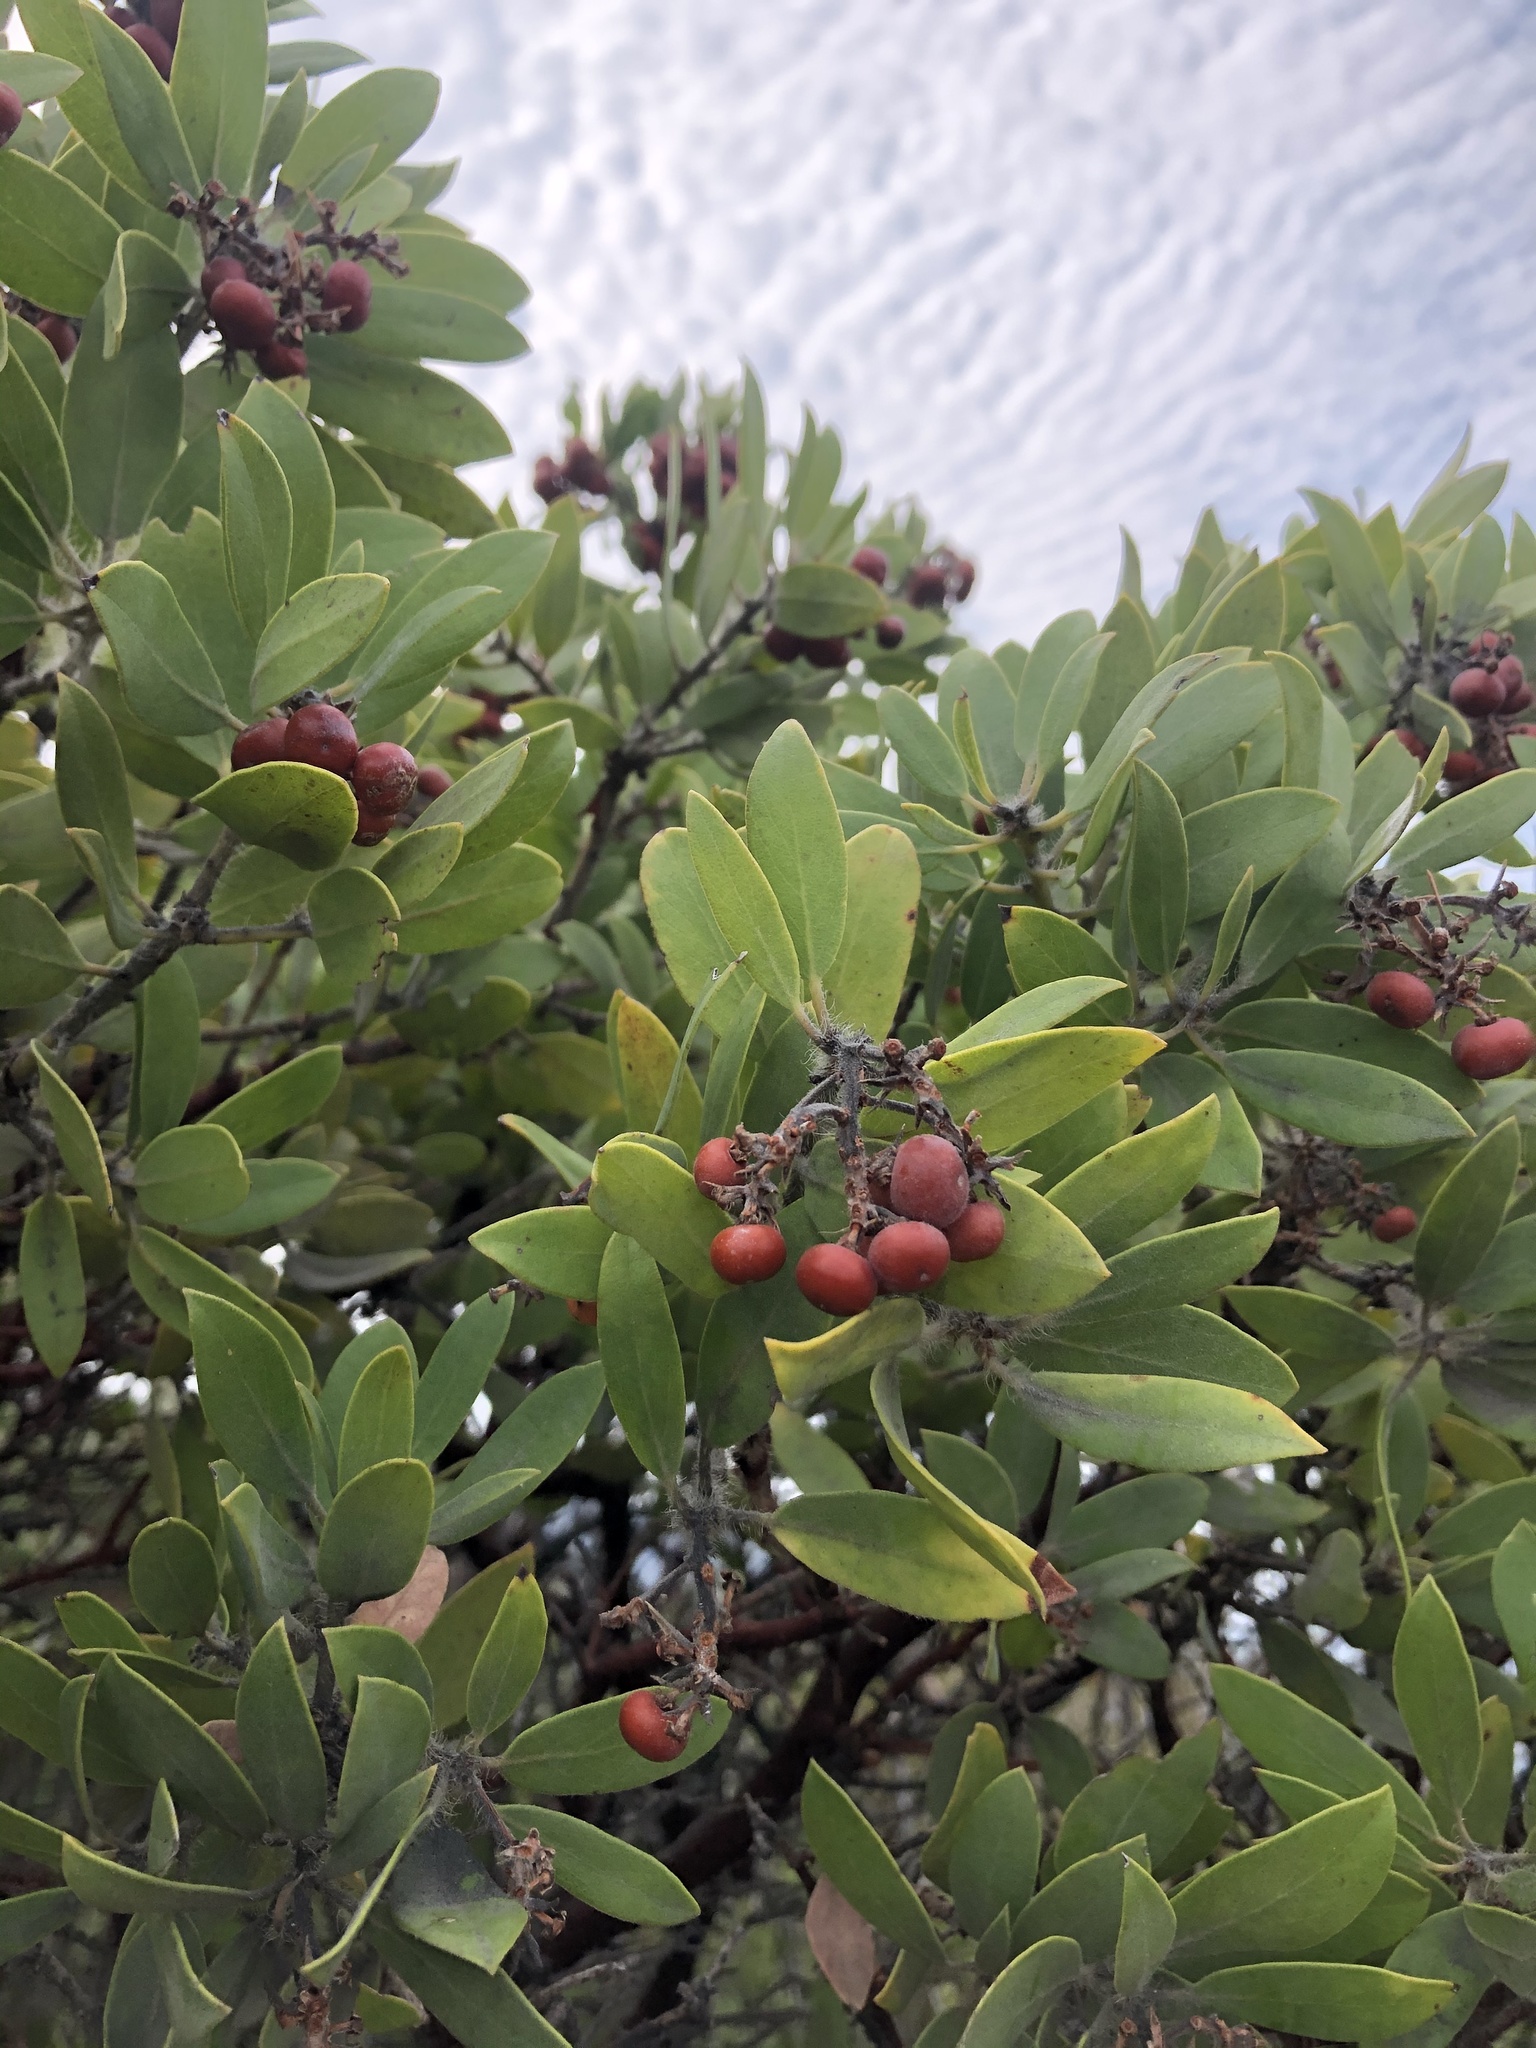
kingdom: Plantae
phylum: Tracheophyta
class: Magnoliopsida
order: Ericales
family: Ericaceae
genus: Arctostaphylos
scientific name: Arctostaphylos glandulosa
